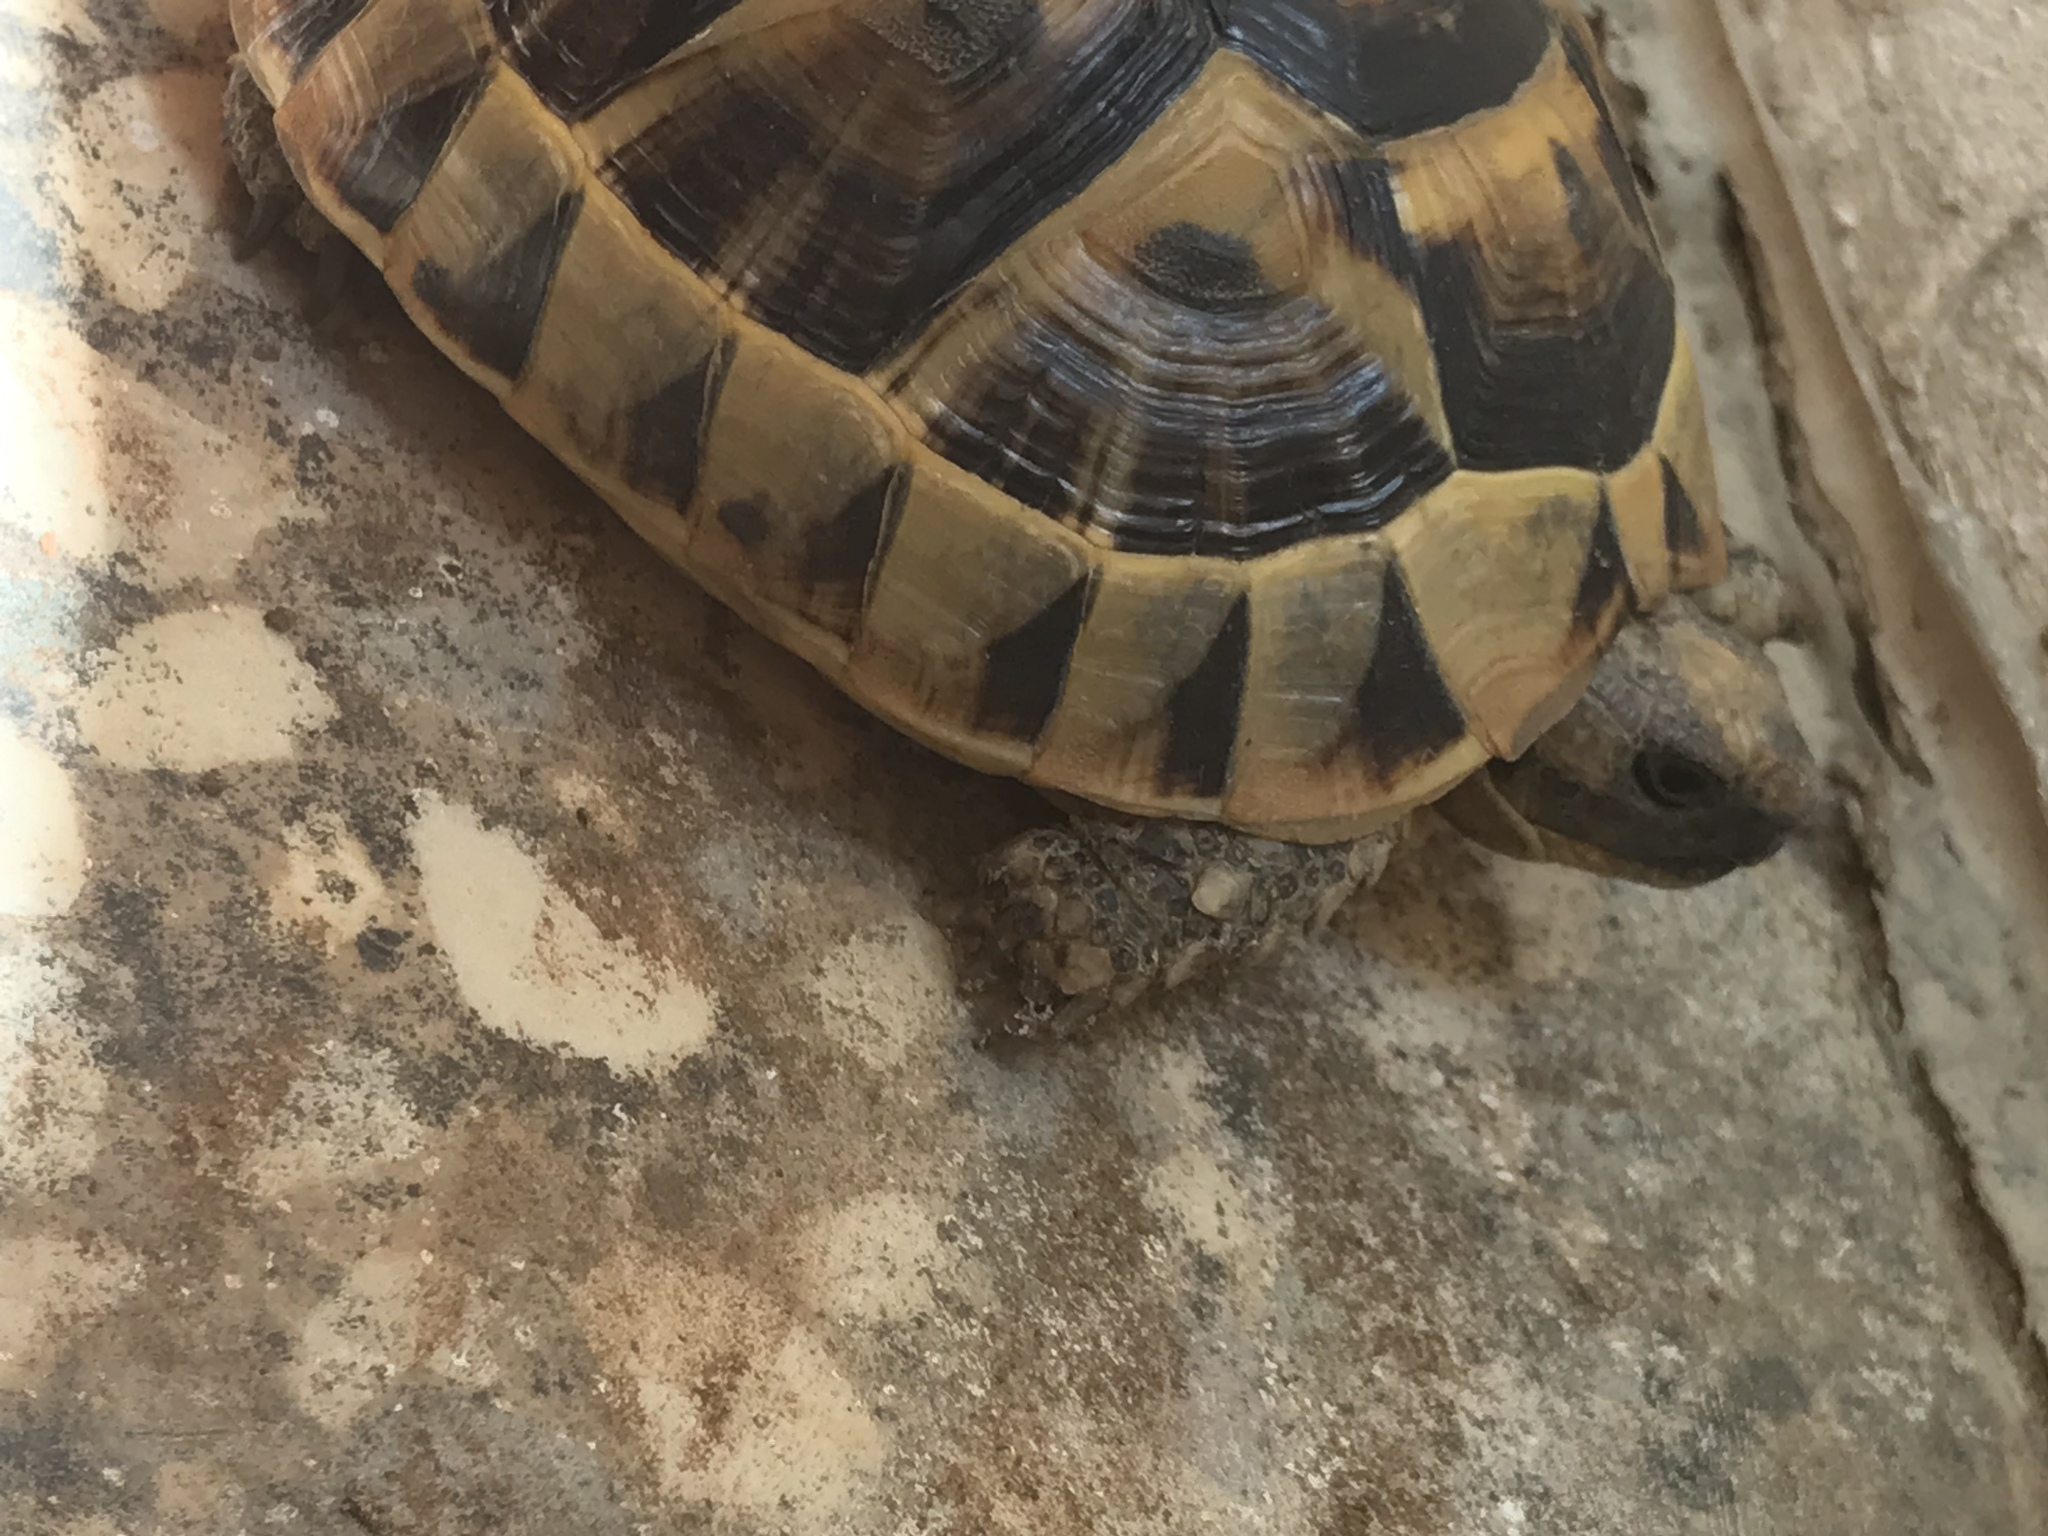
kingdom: Animalia
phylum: Chordata
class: Testudines
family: Testudinidae
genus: Testudo
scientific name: Testudo graeca
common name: Common tortoise
